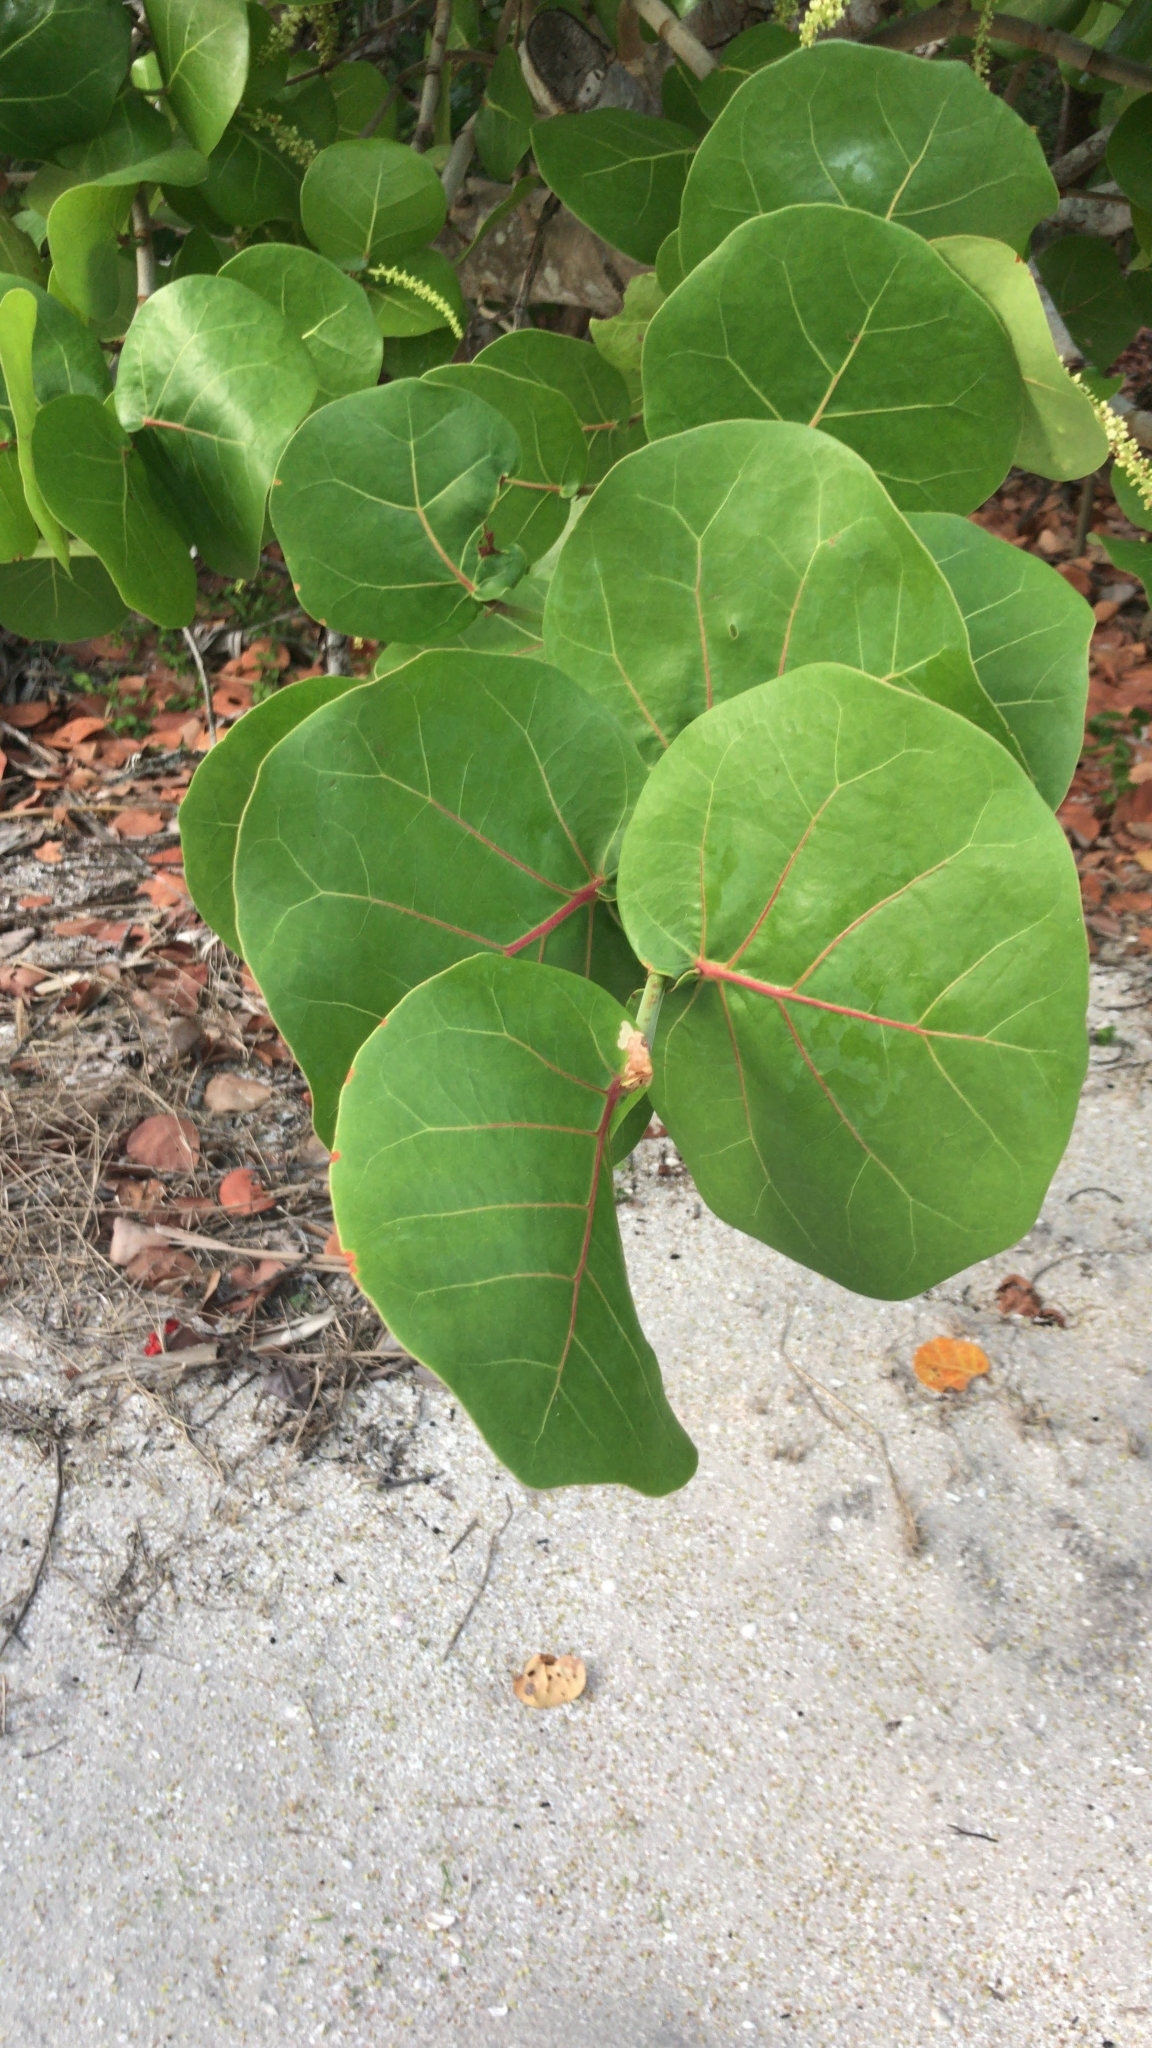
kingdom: Plantae
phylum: Tracheophyta
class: Magnoliopsida
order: Caryophyllales
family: Polygonaceae
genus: Coccoloba
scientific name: Coccoloba uvifera
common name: Seagrape
